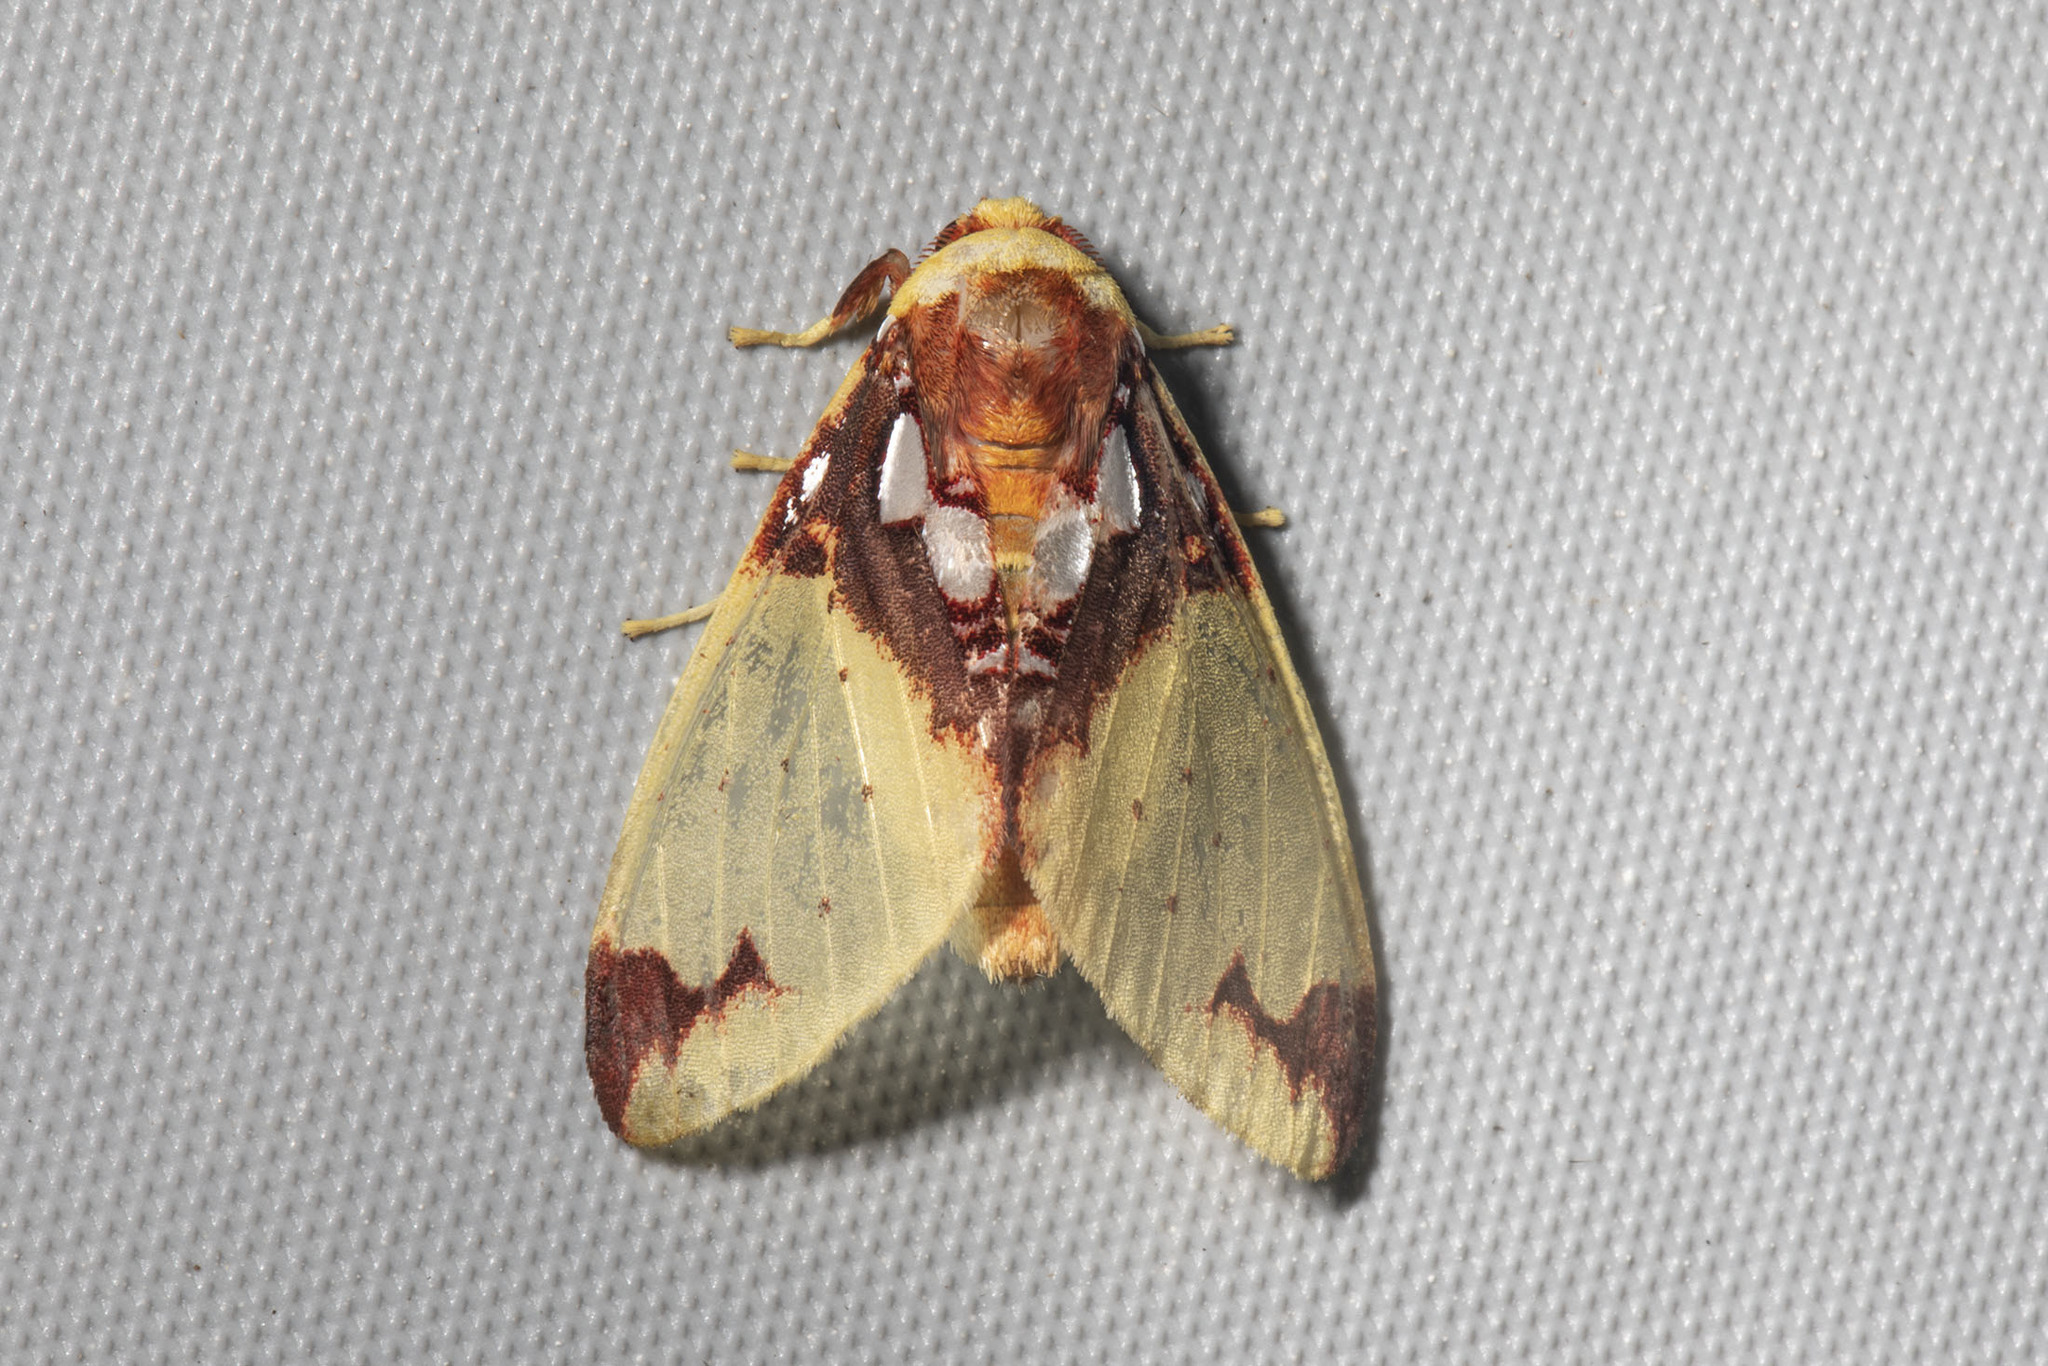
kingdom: Animalia
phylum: Arthropoda
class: Insecta
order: Lepidoptera
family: Erebidae
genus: Amaxia
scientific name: Amaxia chaon
